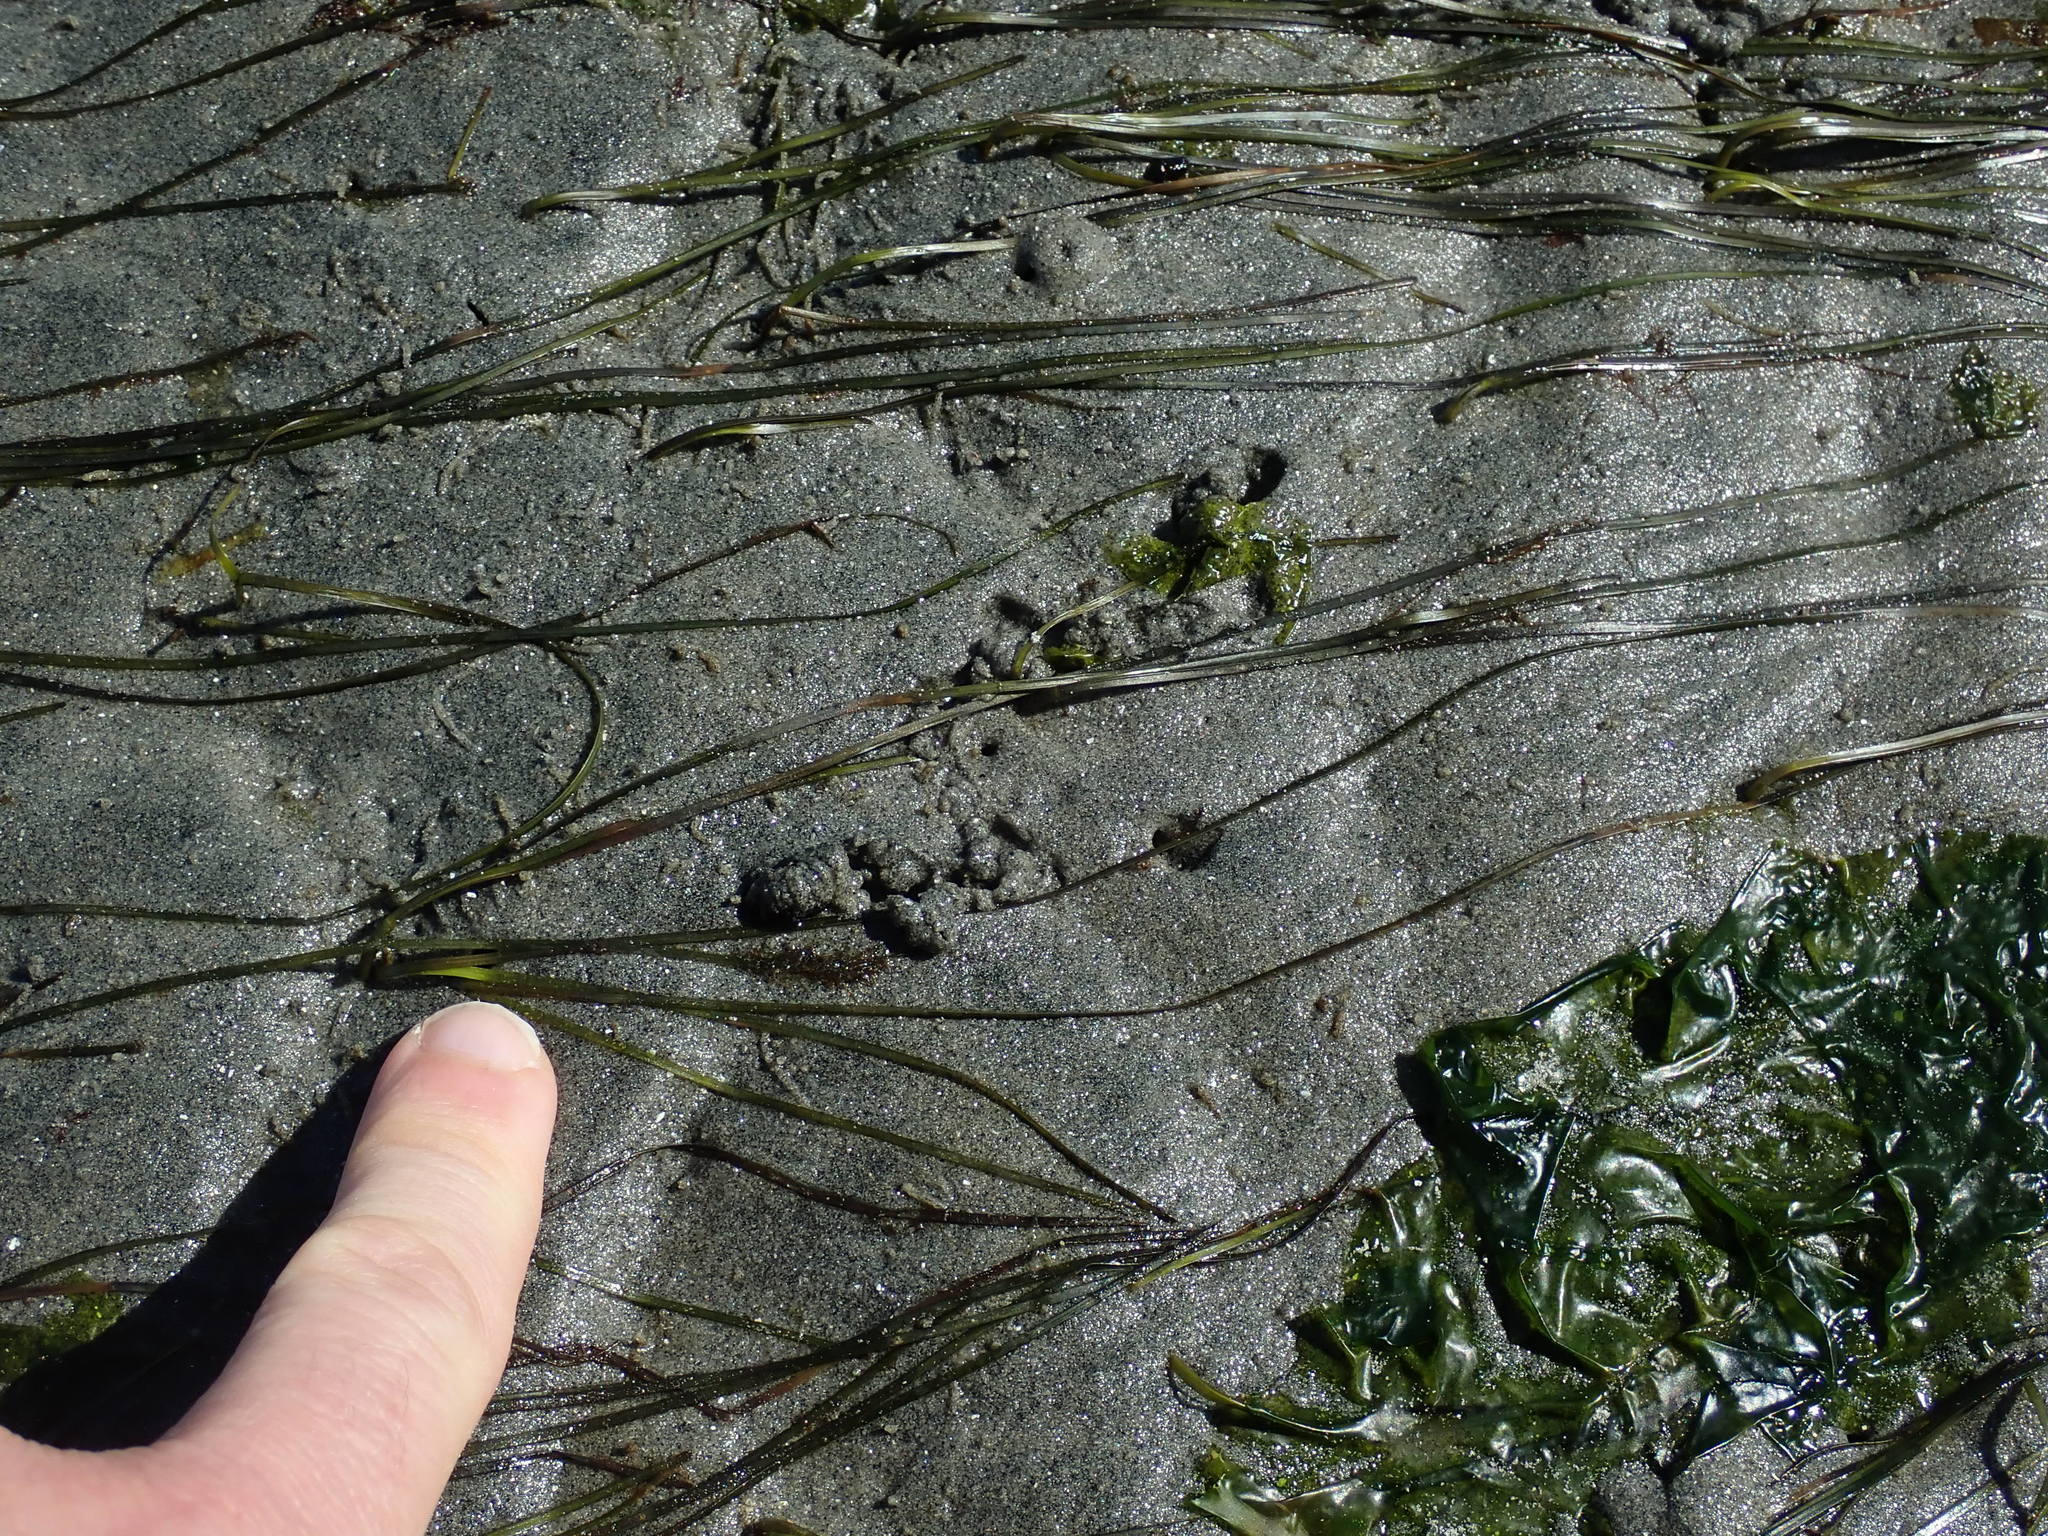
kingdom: Plantae
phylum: Tracheophyta
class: Liliopsida
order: Alismatales
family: Zosteraceae
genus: Zostera
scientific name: Zostera japonica
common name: Dwarf eelgrass
